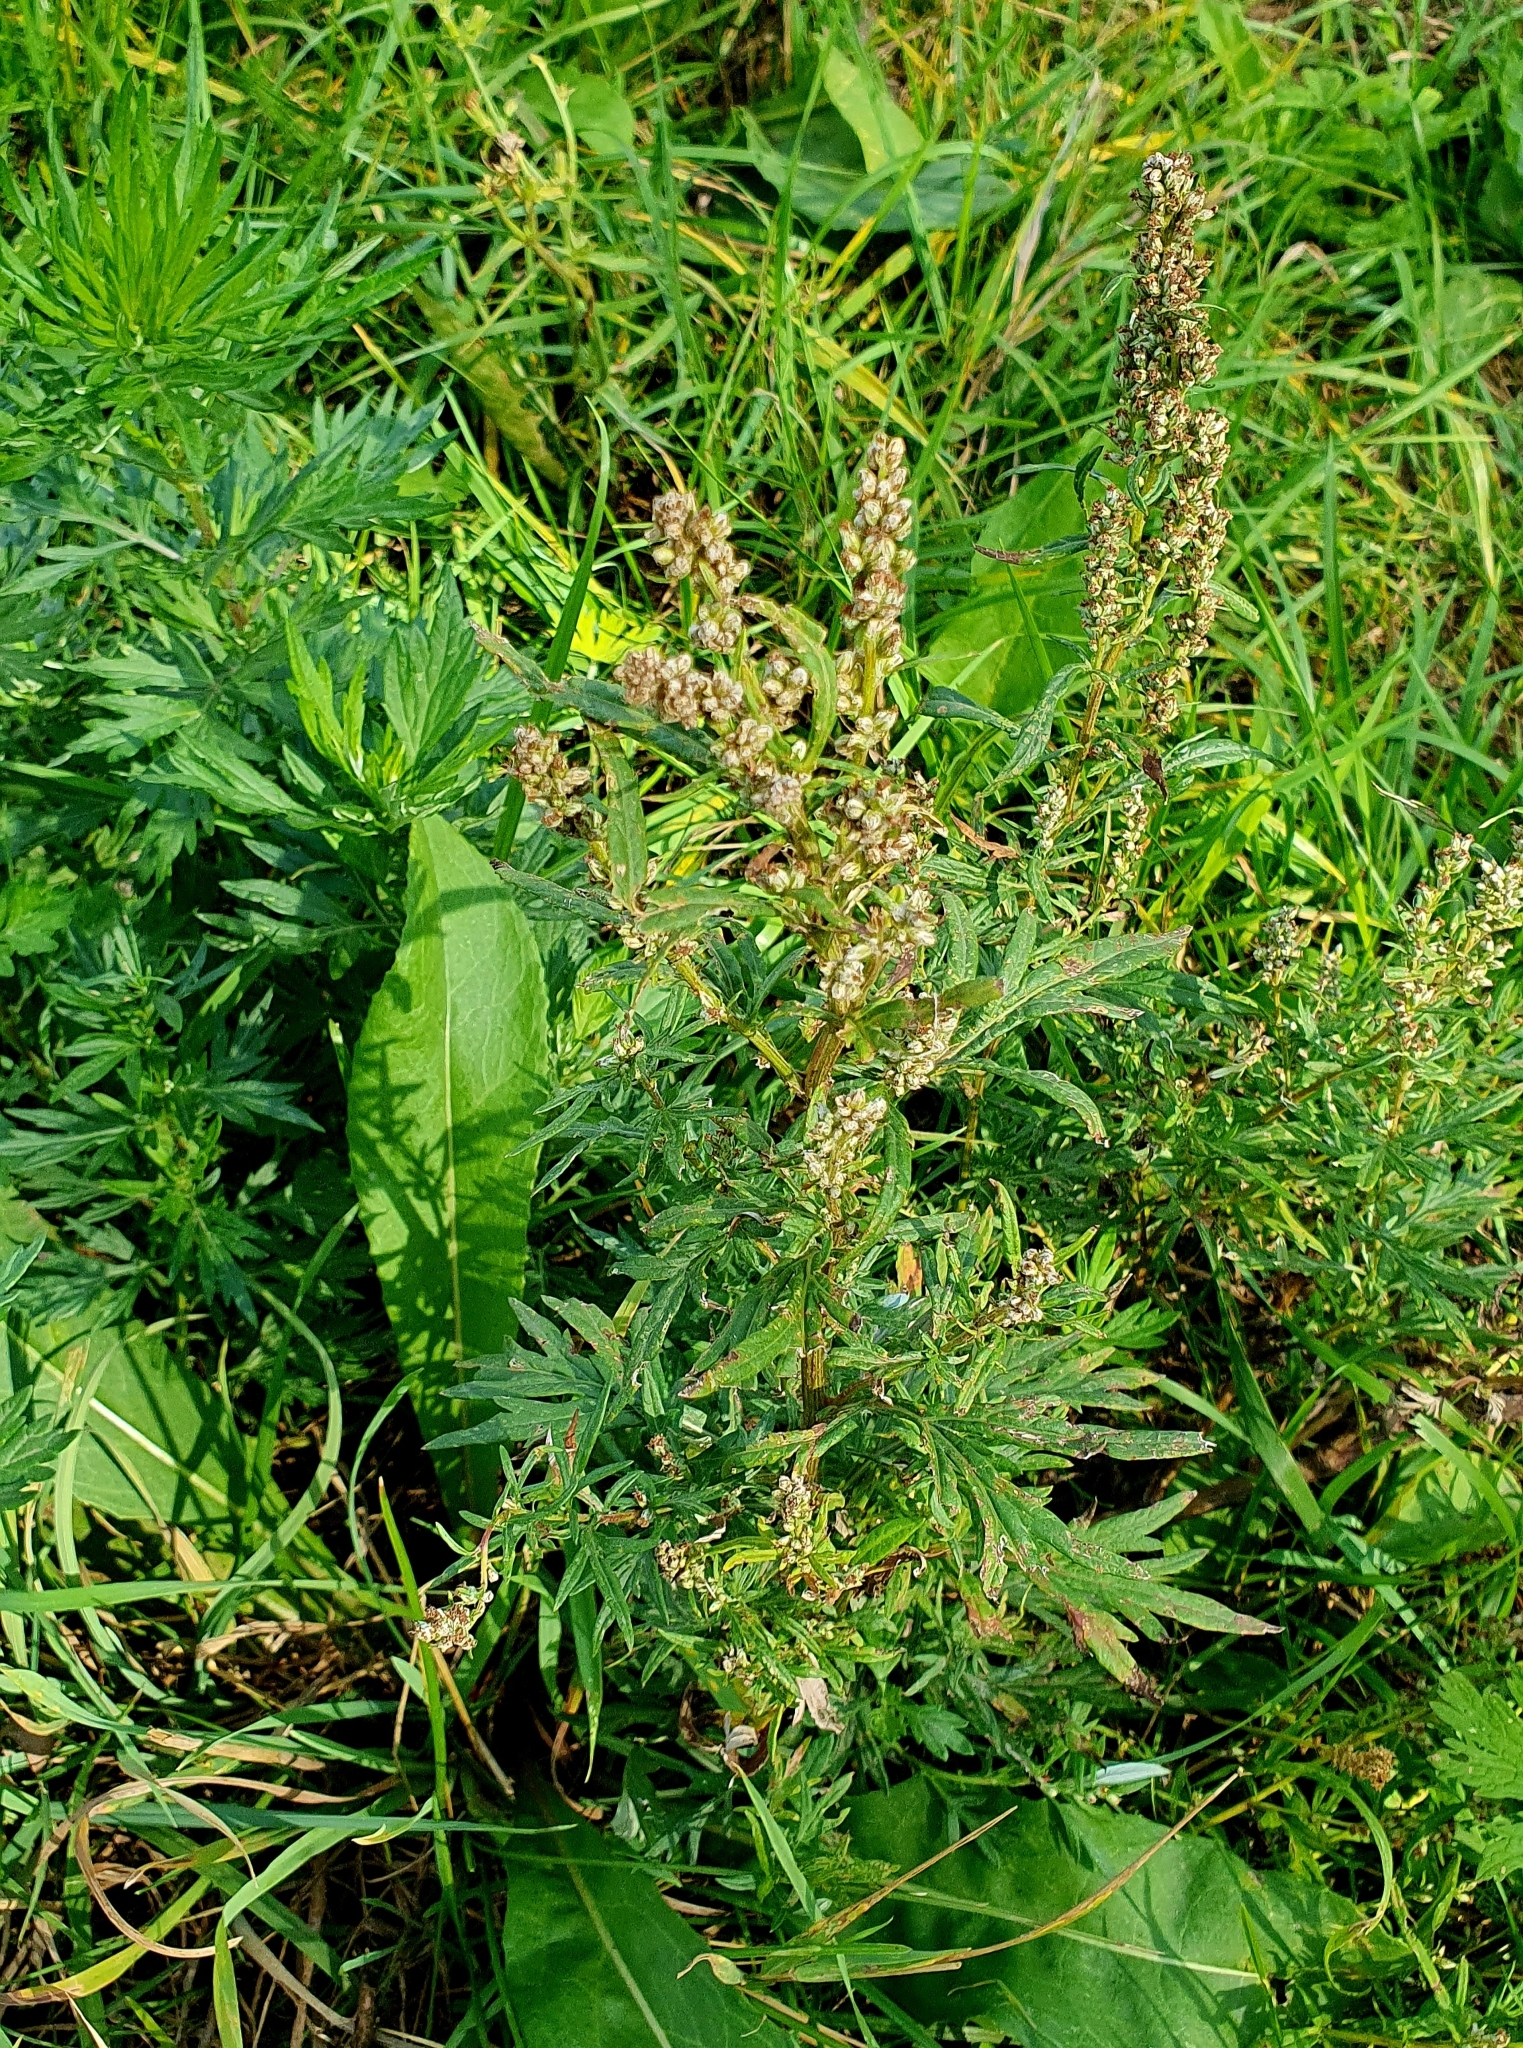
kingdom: Plantae
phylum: Tracheophyta
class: Magnoliopsida
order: Asterales
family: Asteraceae
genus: Artemisia
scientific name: Artemisia vulgaris
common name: Mugwort
